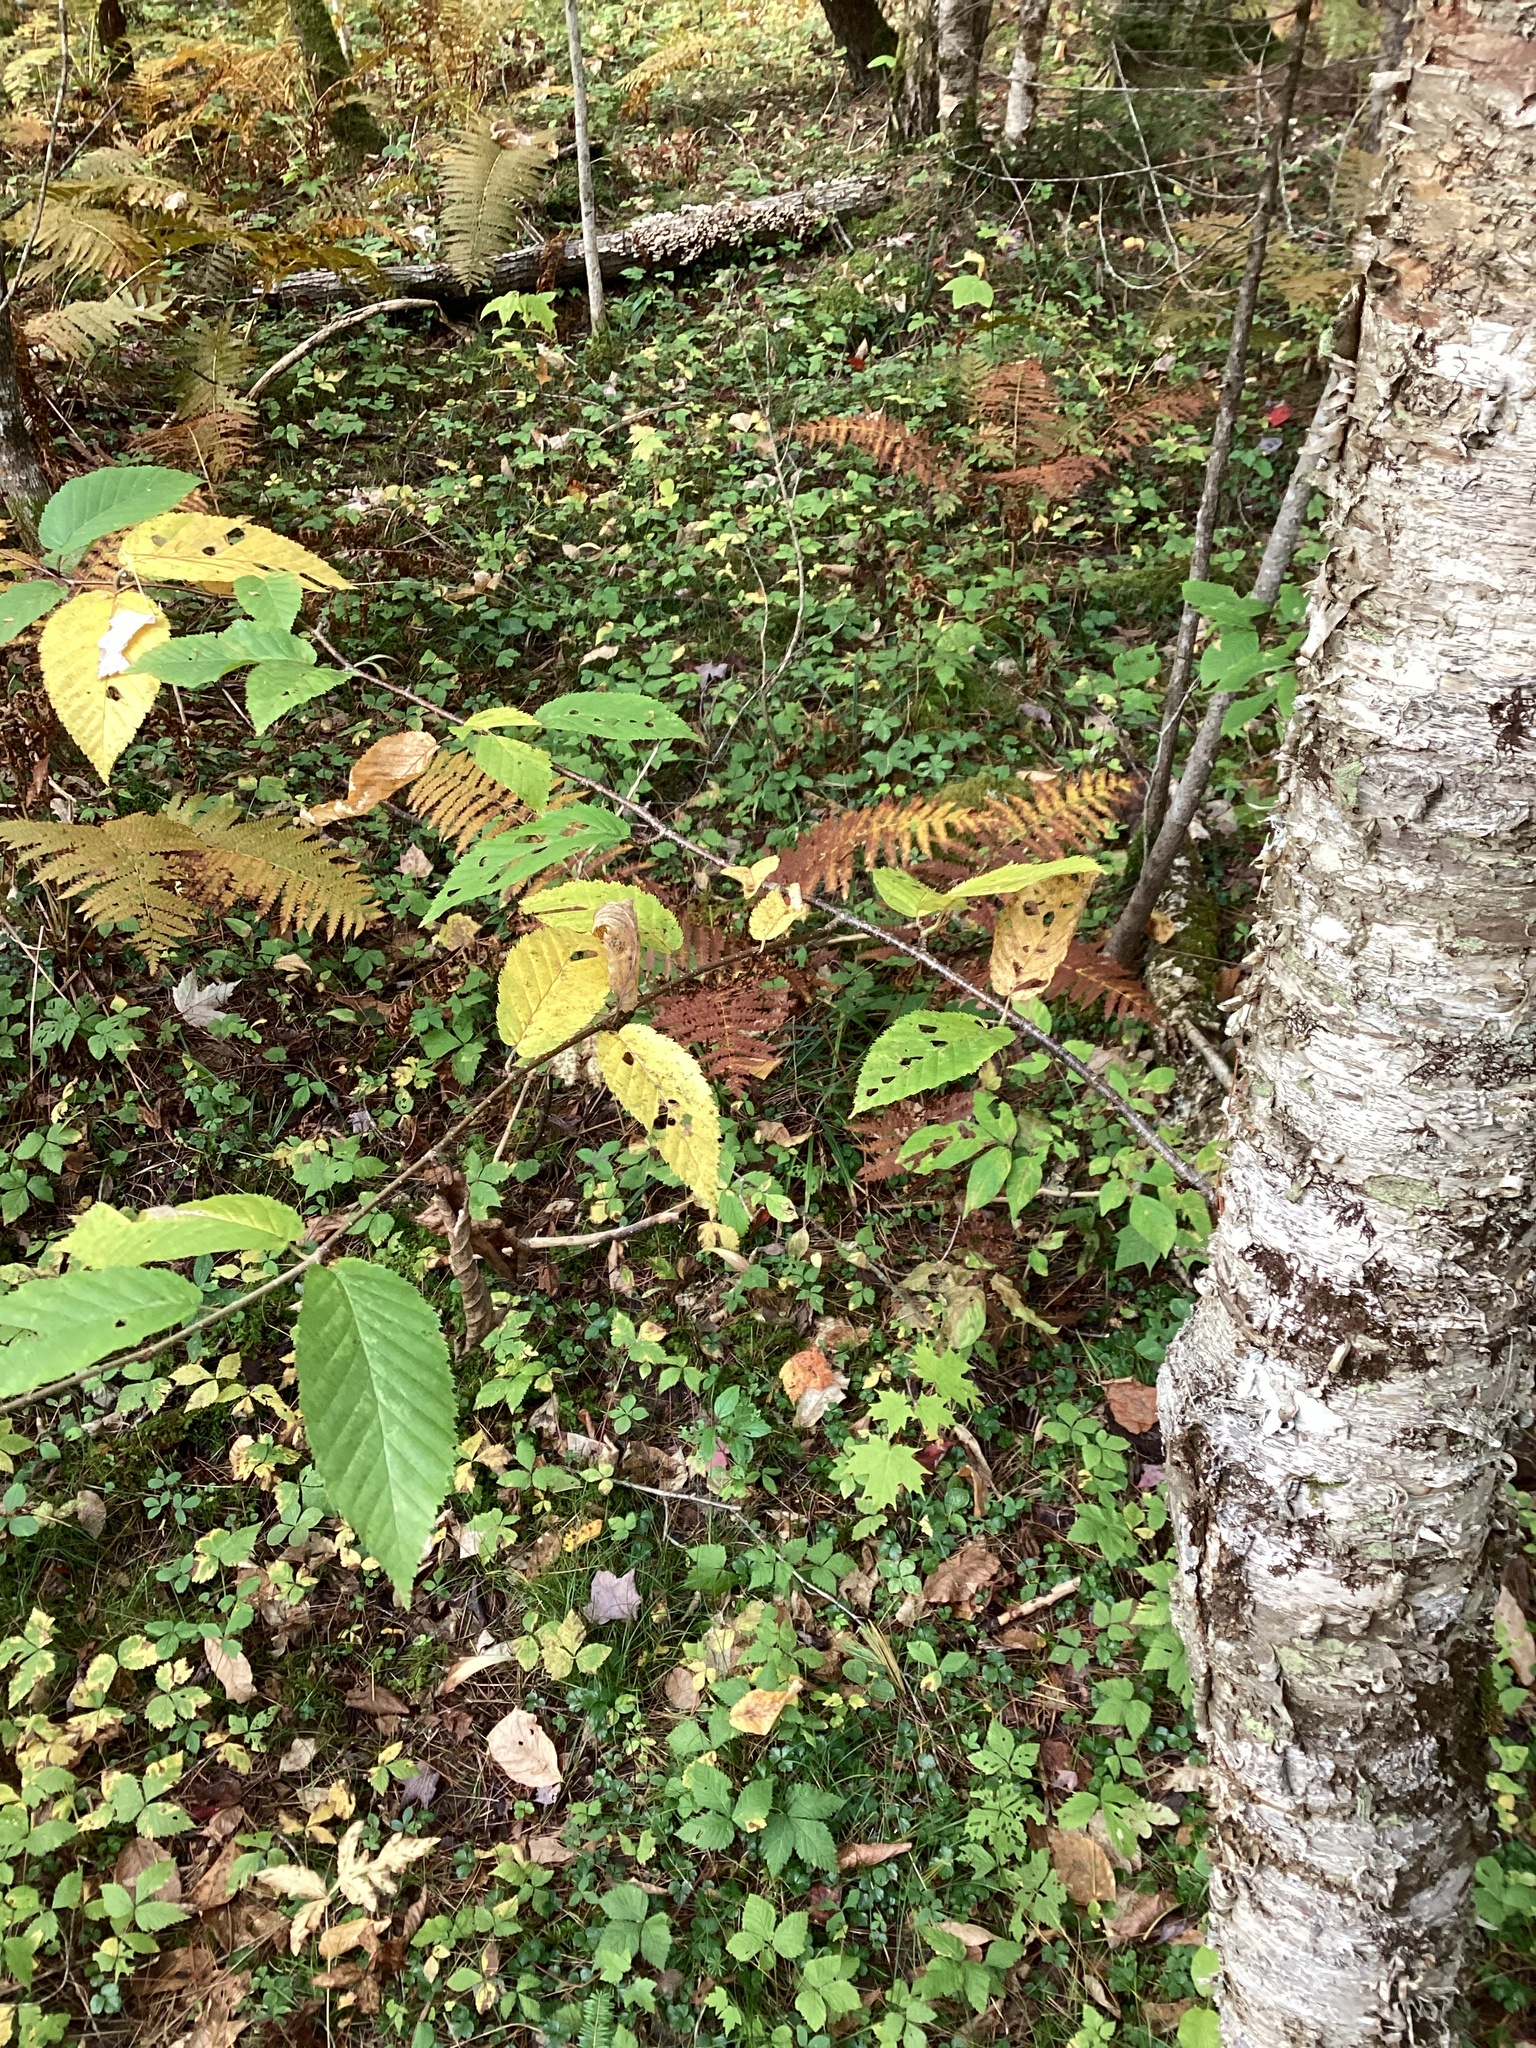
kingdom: Plantae
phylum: Tracheophyta
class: Magnoliopsida
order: Fagales
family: Betulaceae
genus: Betula
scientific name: Betula alleghaniensis
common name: Yellow birch
